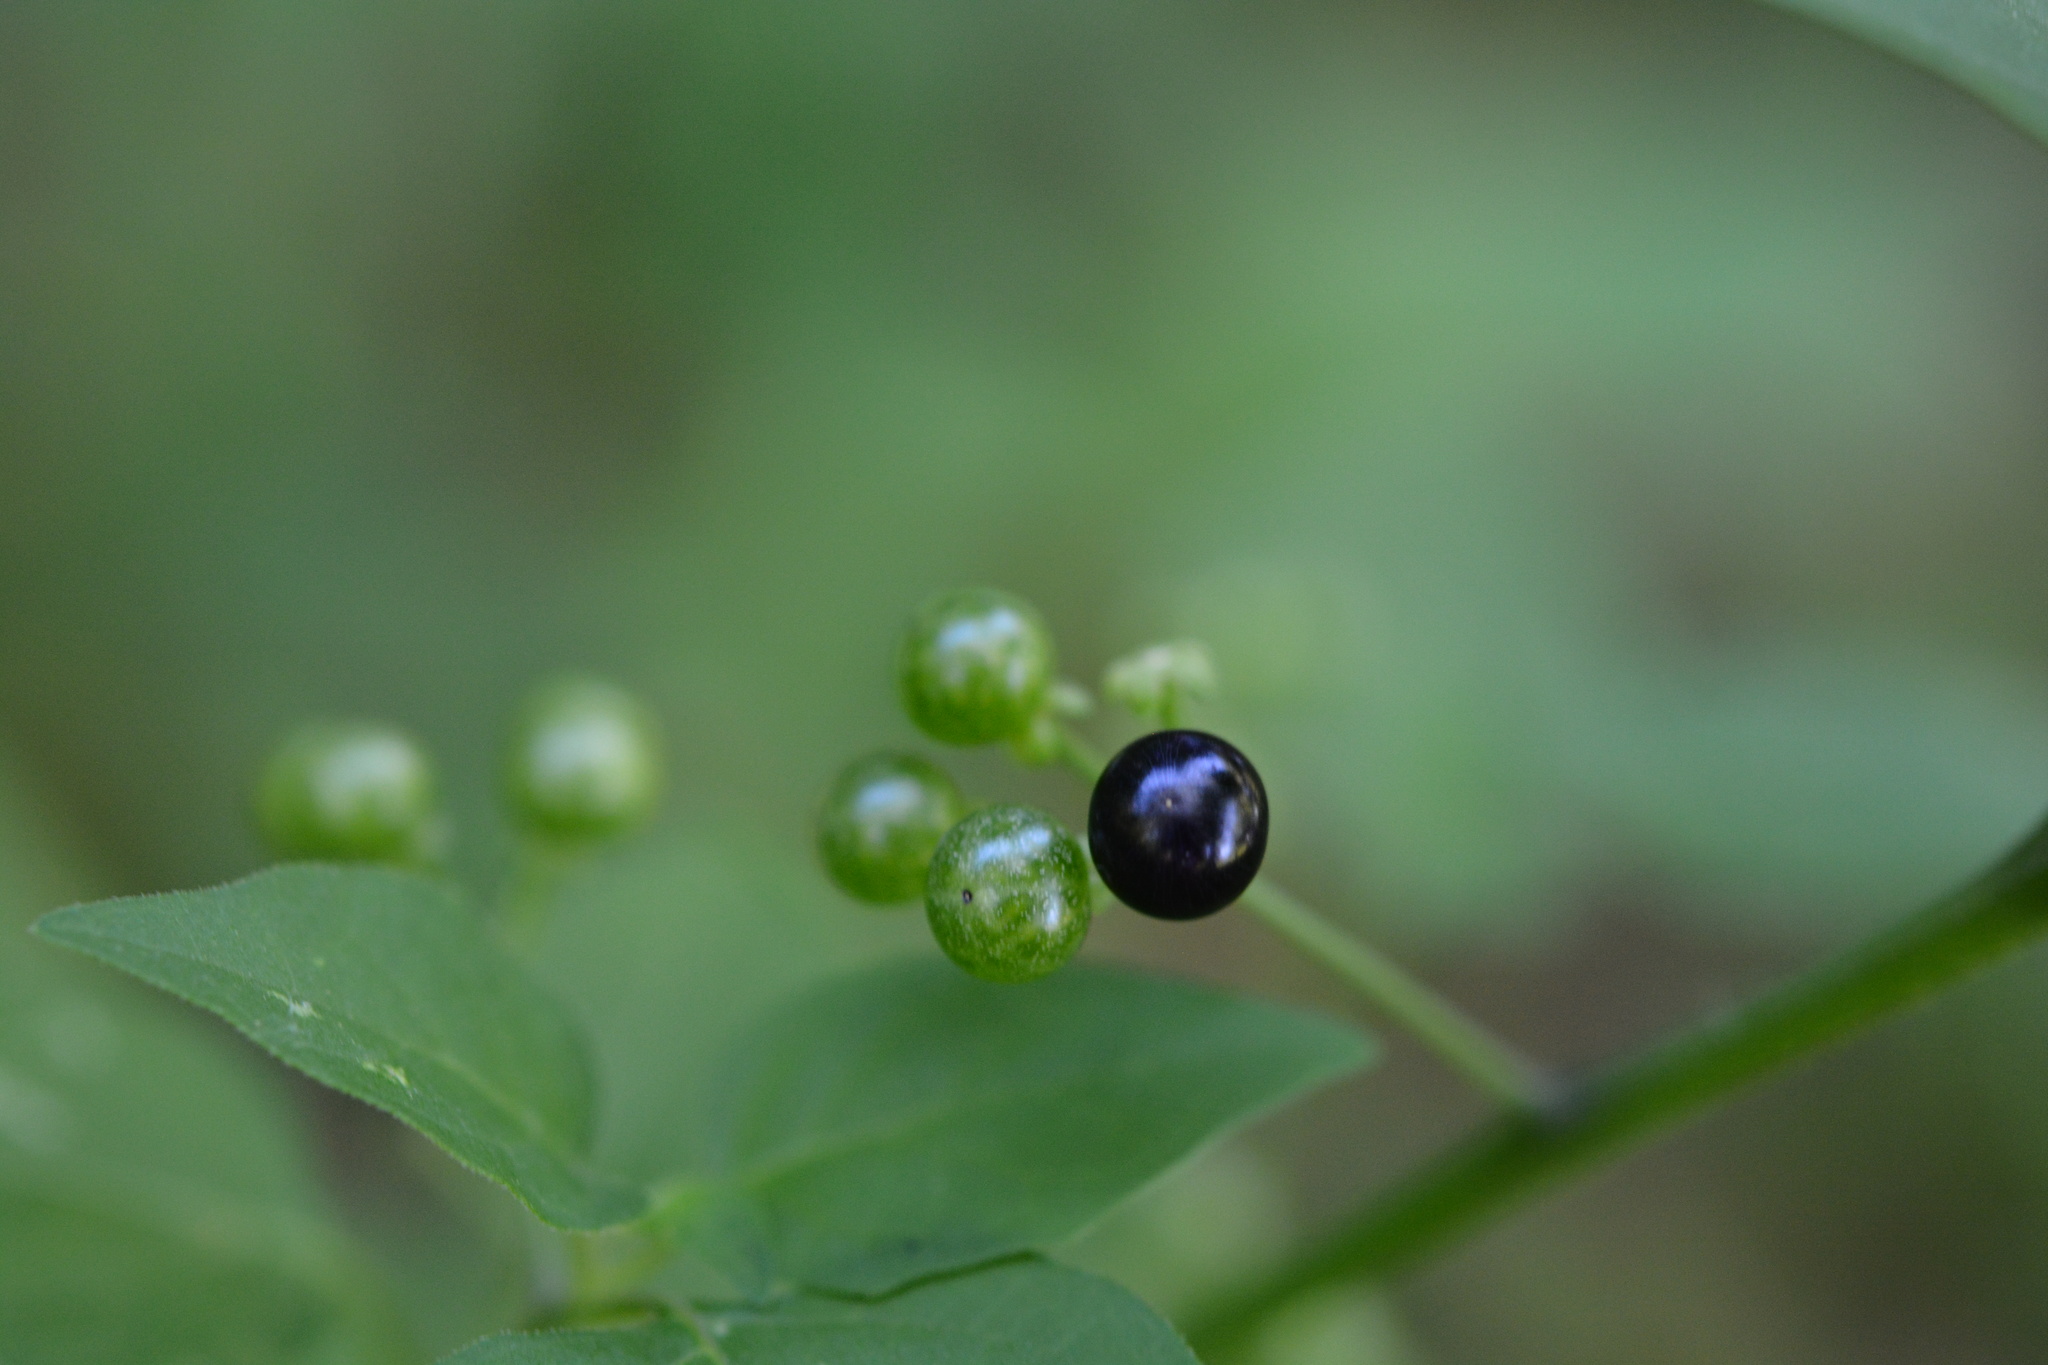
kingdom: Plantae
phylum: Tracheophyta
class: Magnoliopsida
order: Solanales
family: Solanaceae
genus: Solanum
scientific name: Solanum americanum
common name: American black nightshade
